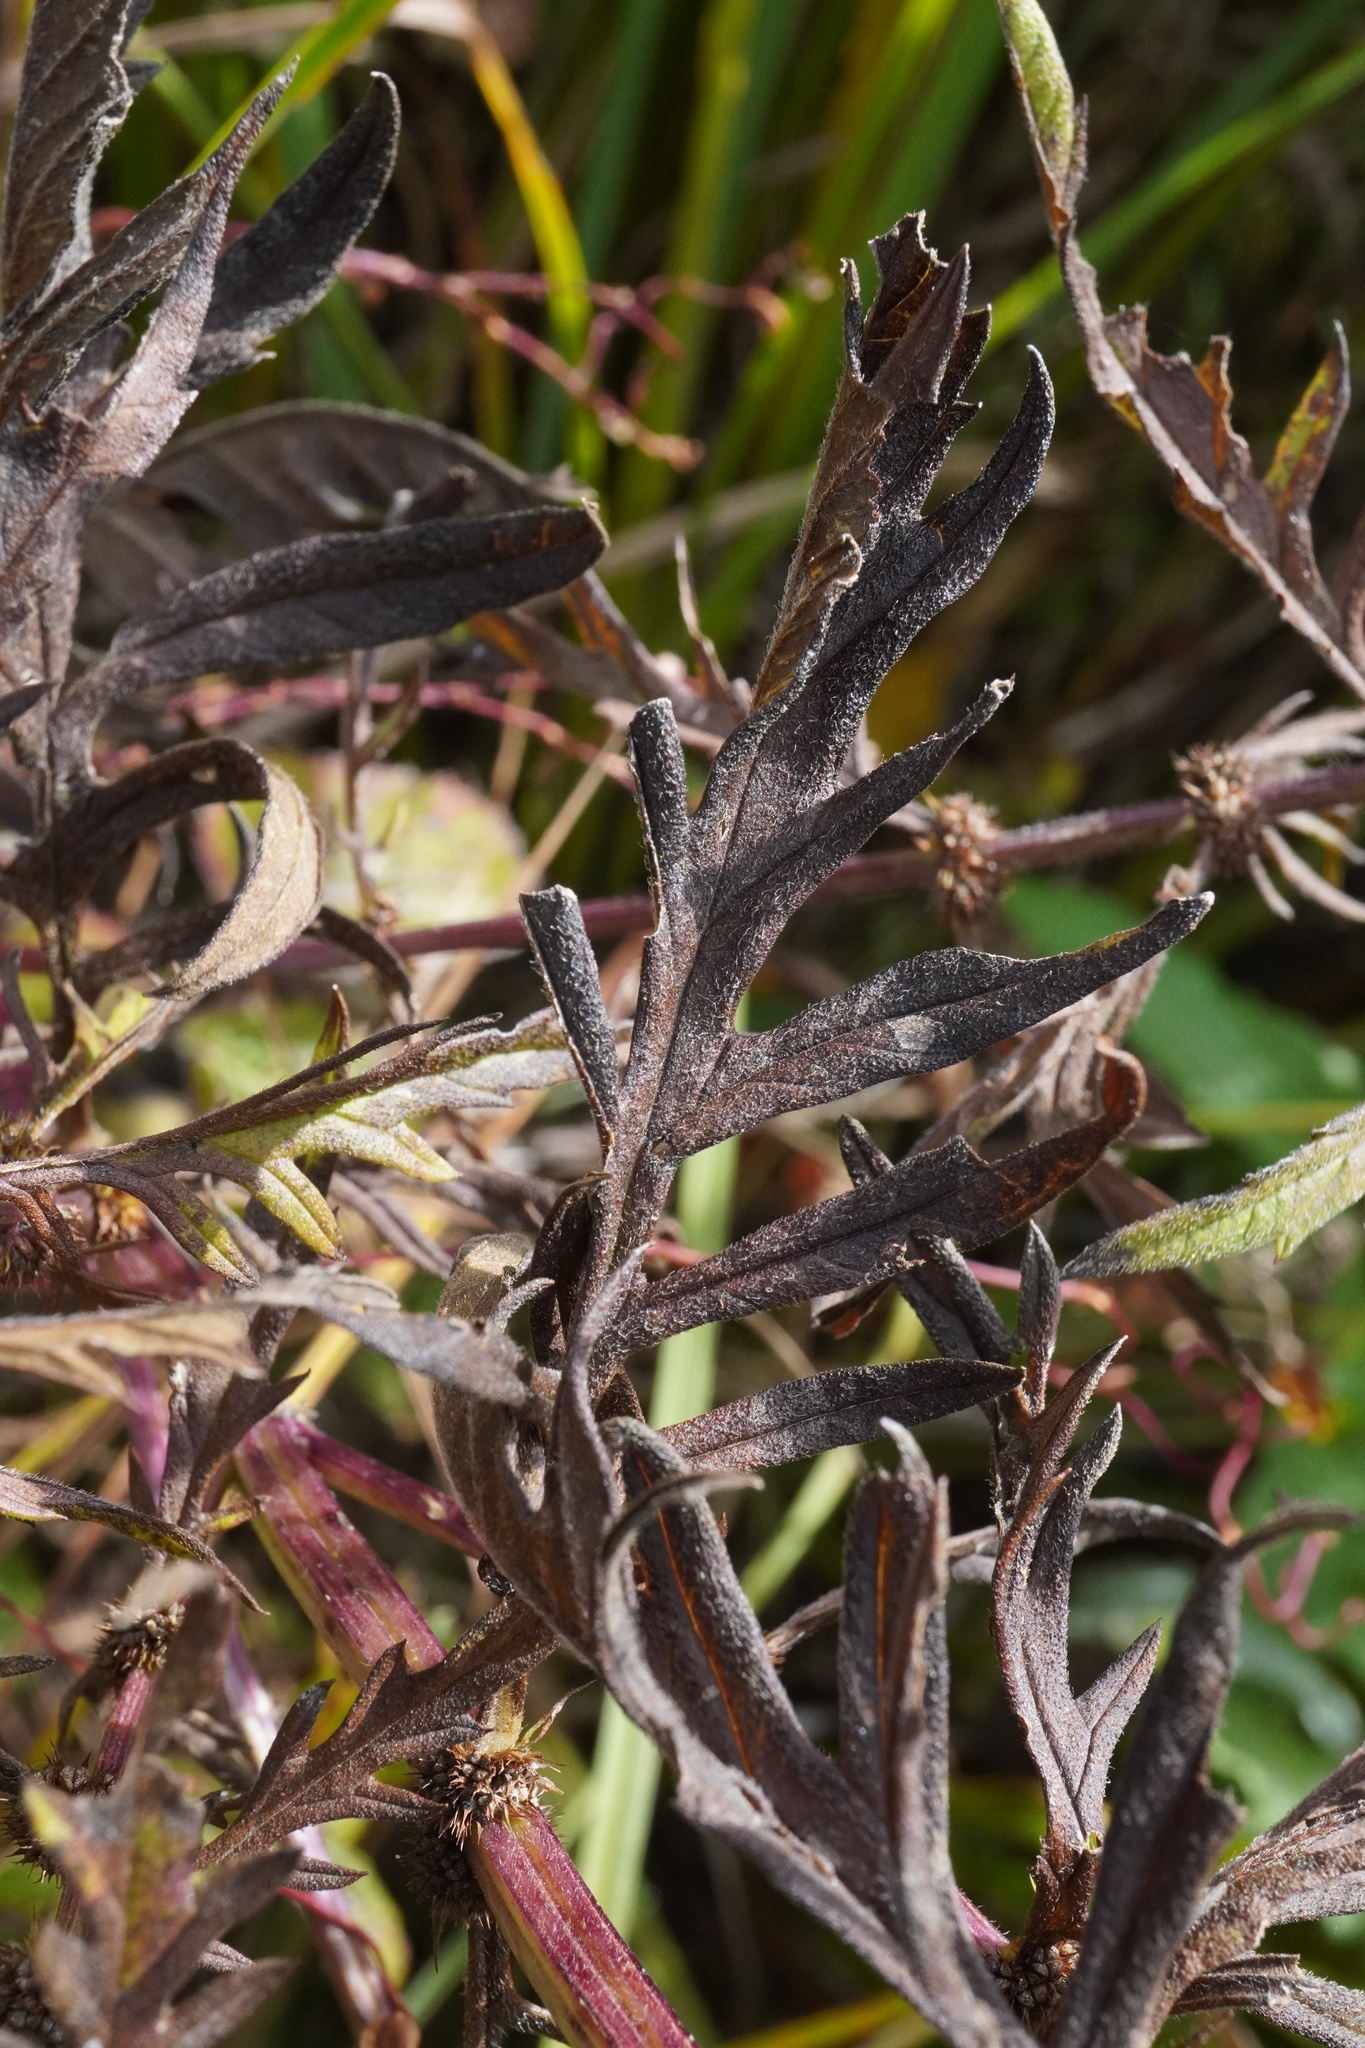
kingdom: Plantae
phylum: Tracheophyta
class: Magnoliopsida
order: Lamiales
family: Lamiaceae
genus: Lycopus
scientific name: Lycopus exaltatus
